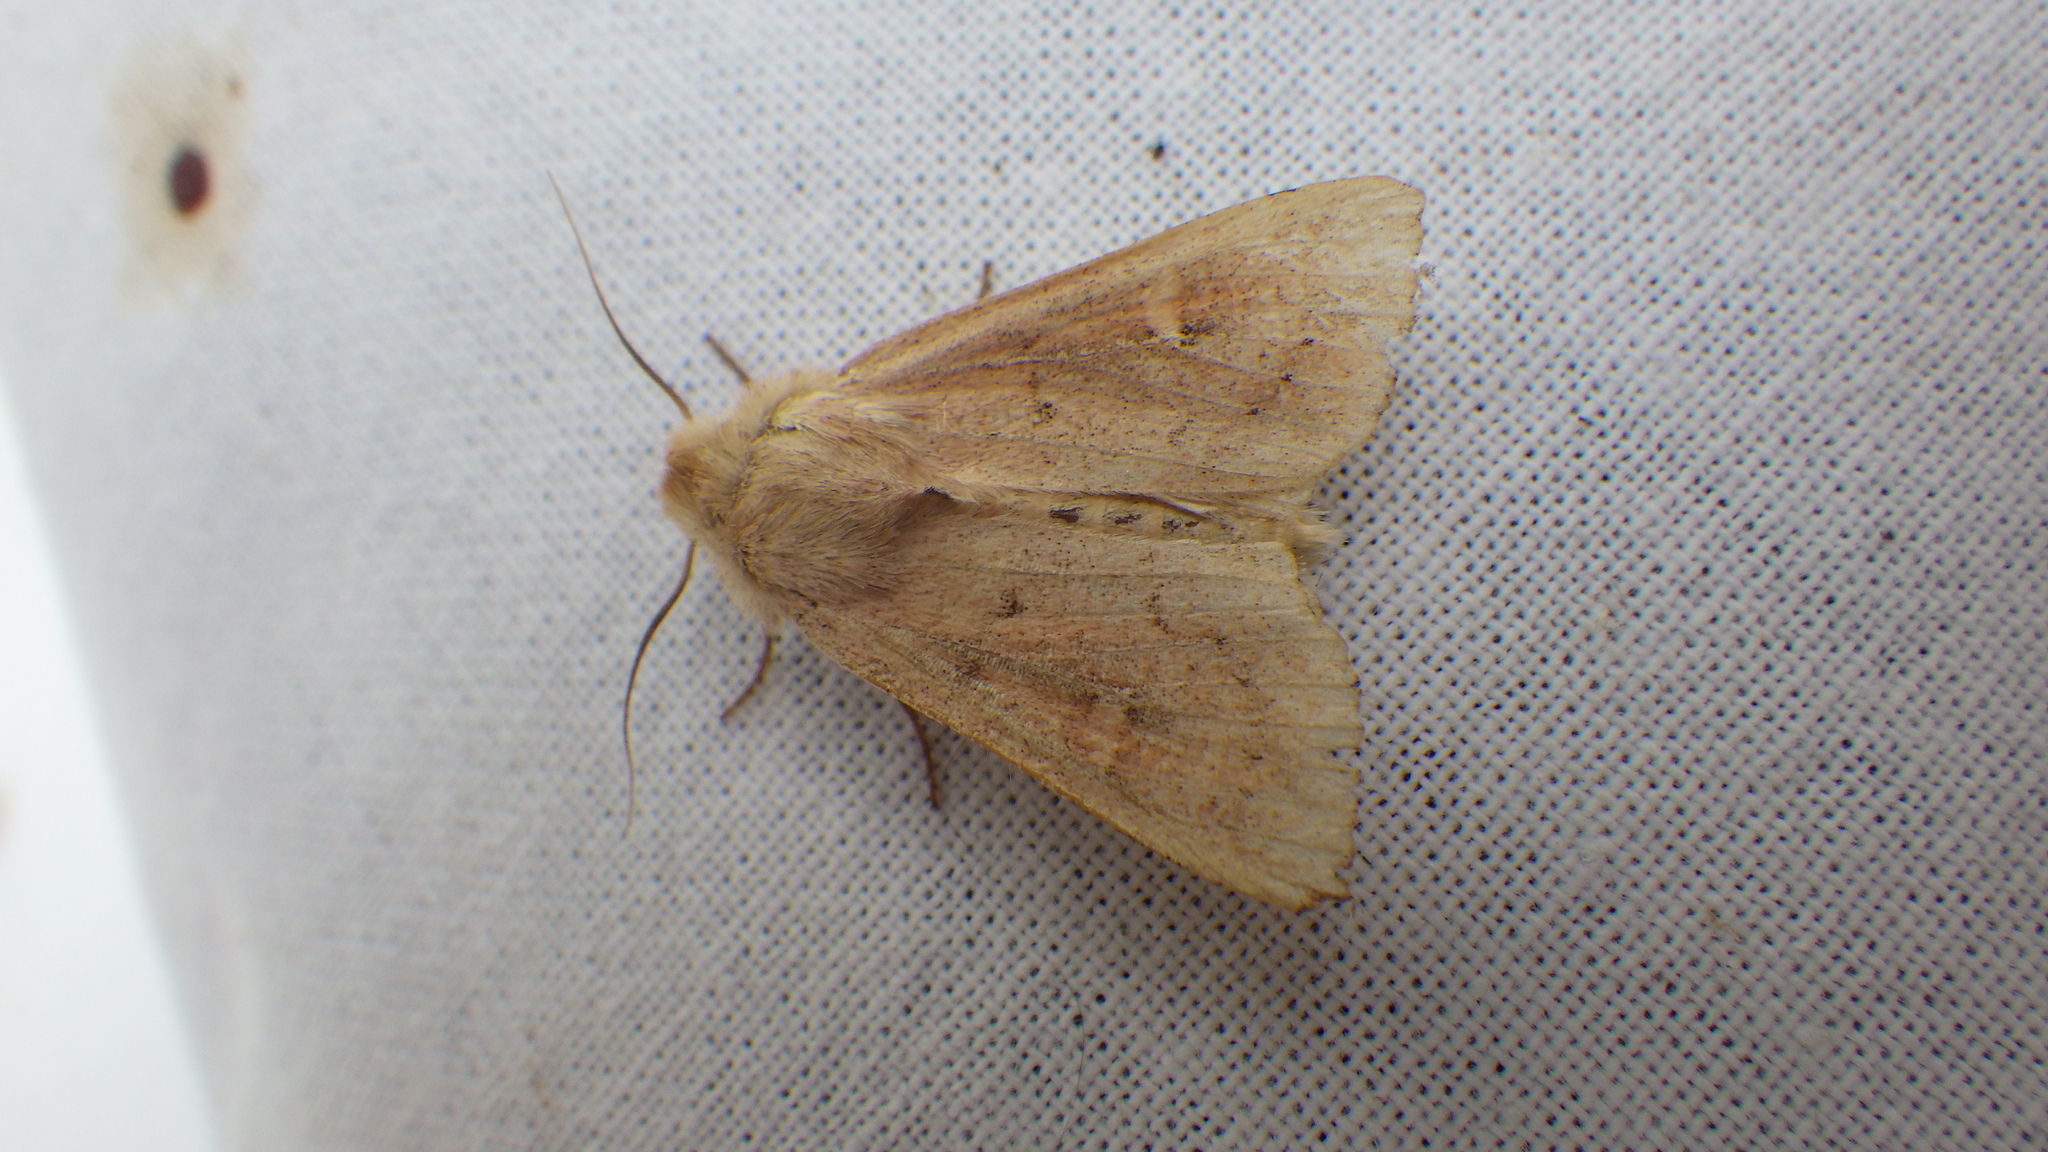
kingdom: Animalia
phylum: Arthropoda
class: Insecta
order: Lepidoptera
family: Noctuidae
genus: Mythimna
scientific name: Mythimna ferrago
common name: Clay
